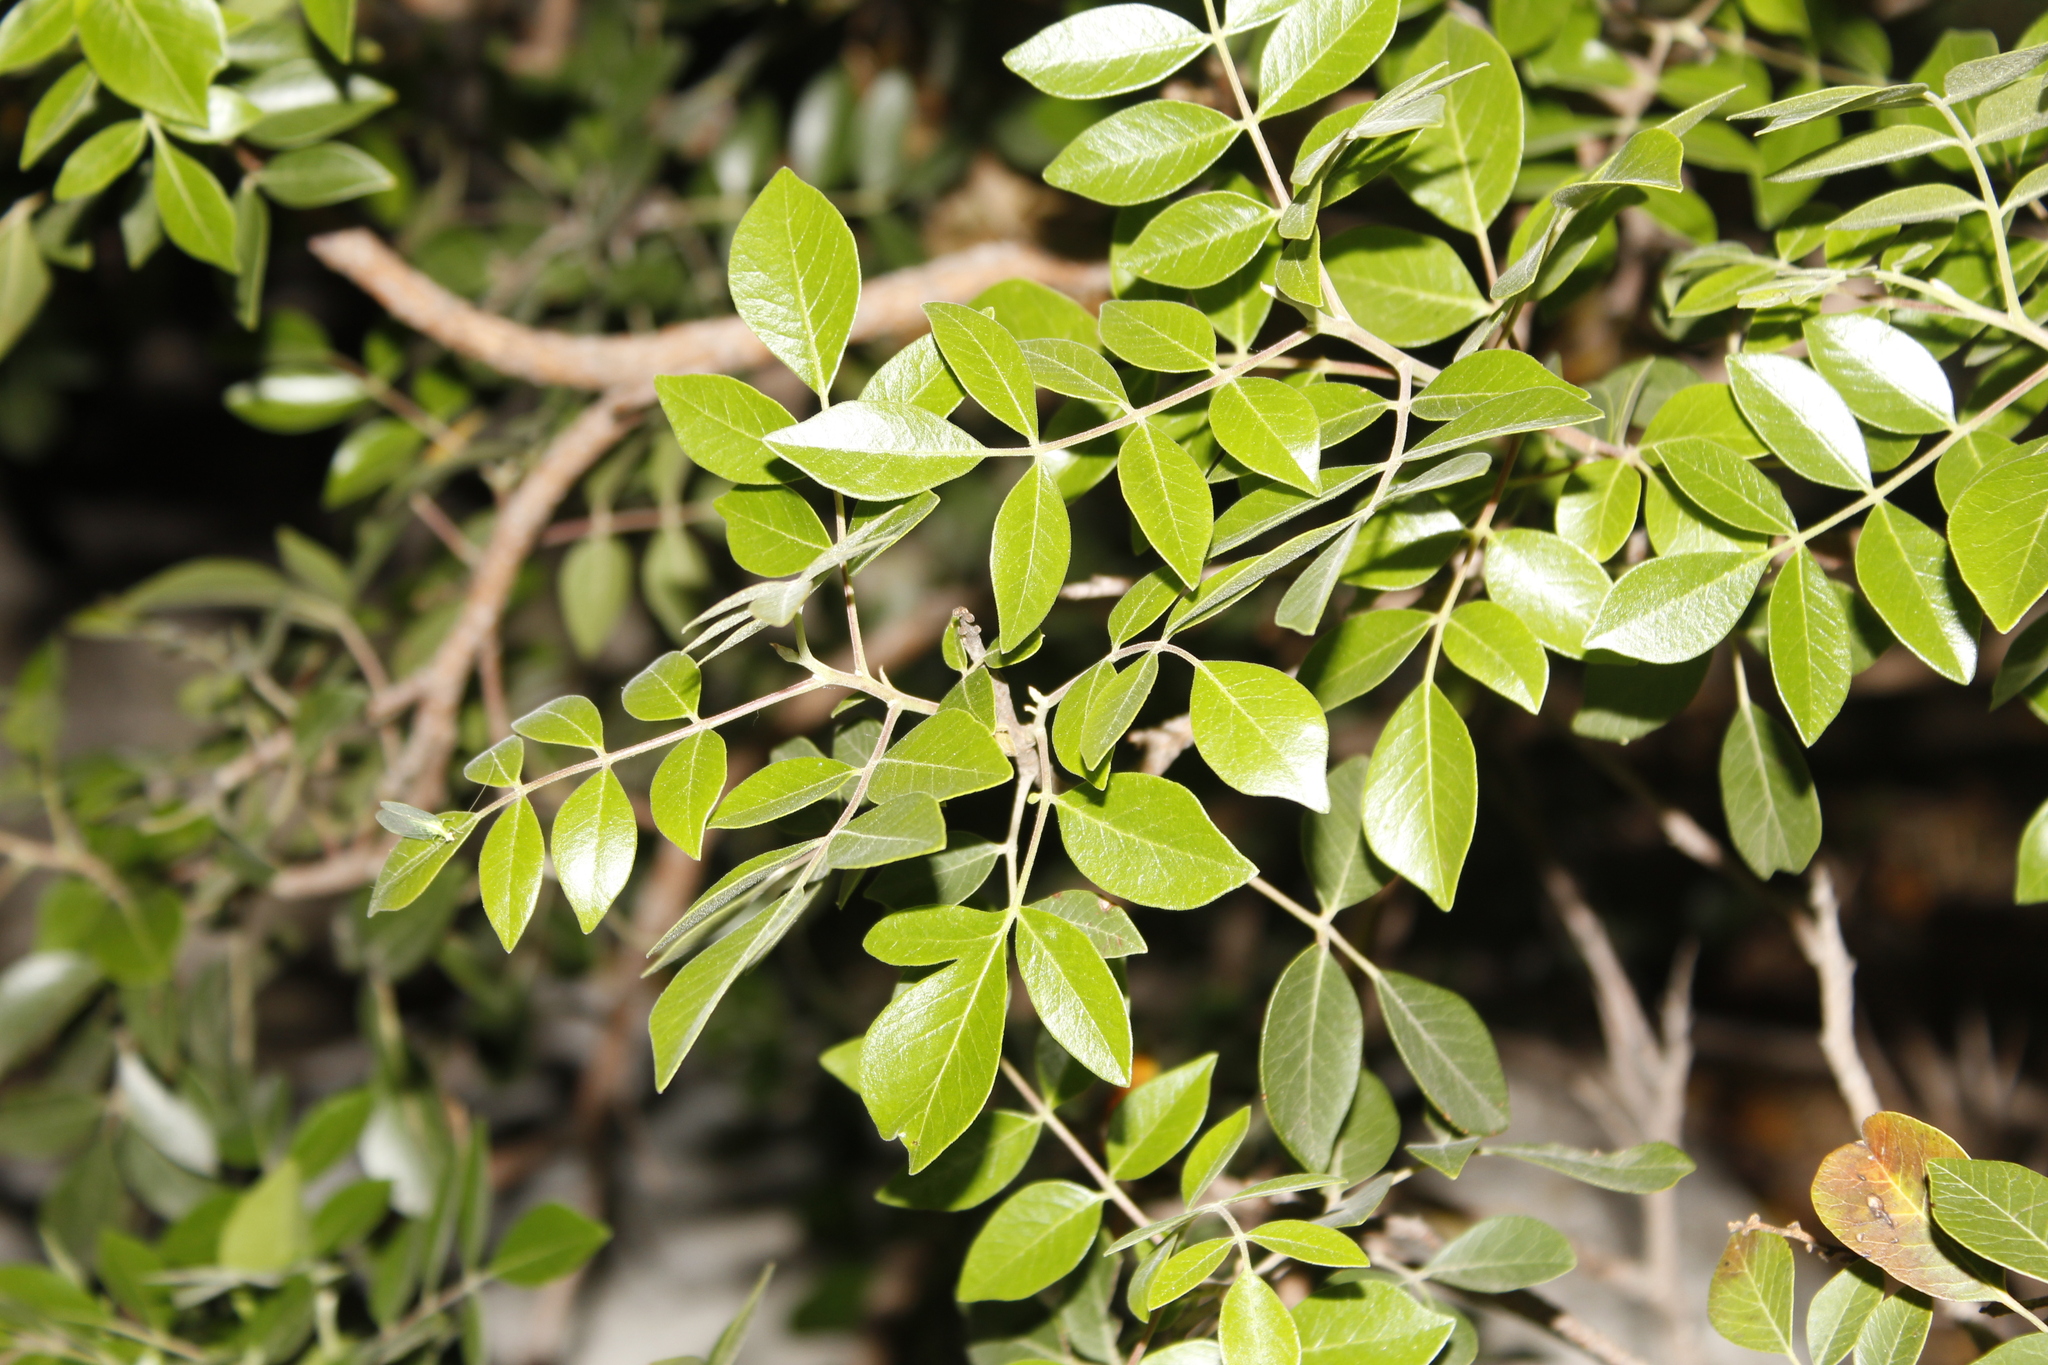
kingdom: Plantae
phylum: Tracheophyta
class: Magnoliopsida
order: Sapindales
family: Anacardiaceae
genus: Rhus
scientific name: Rhus virens
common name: Evergreen sumac
